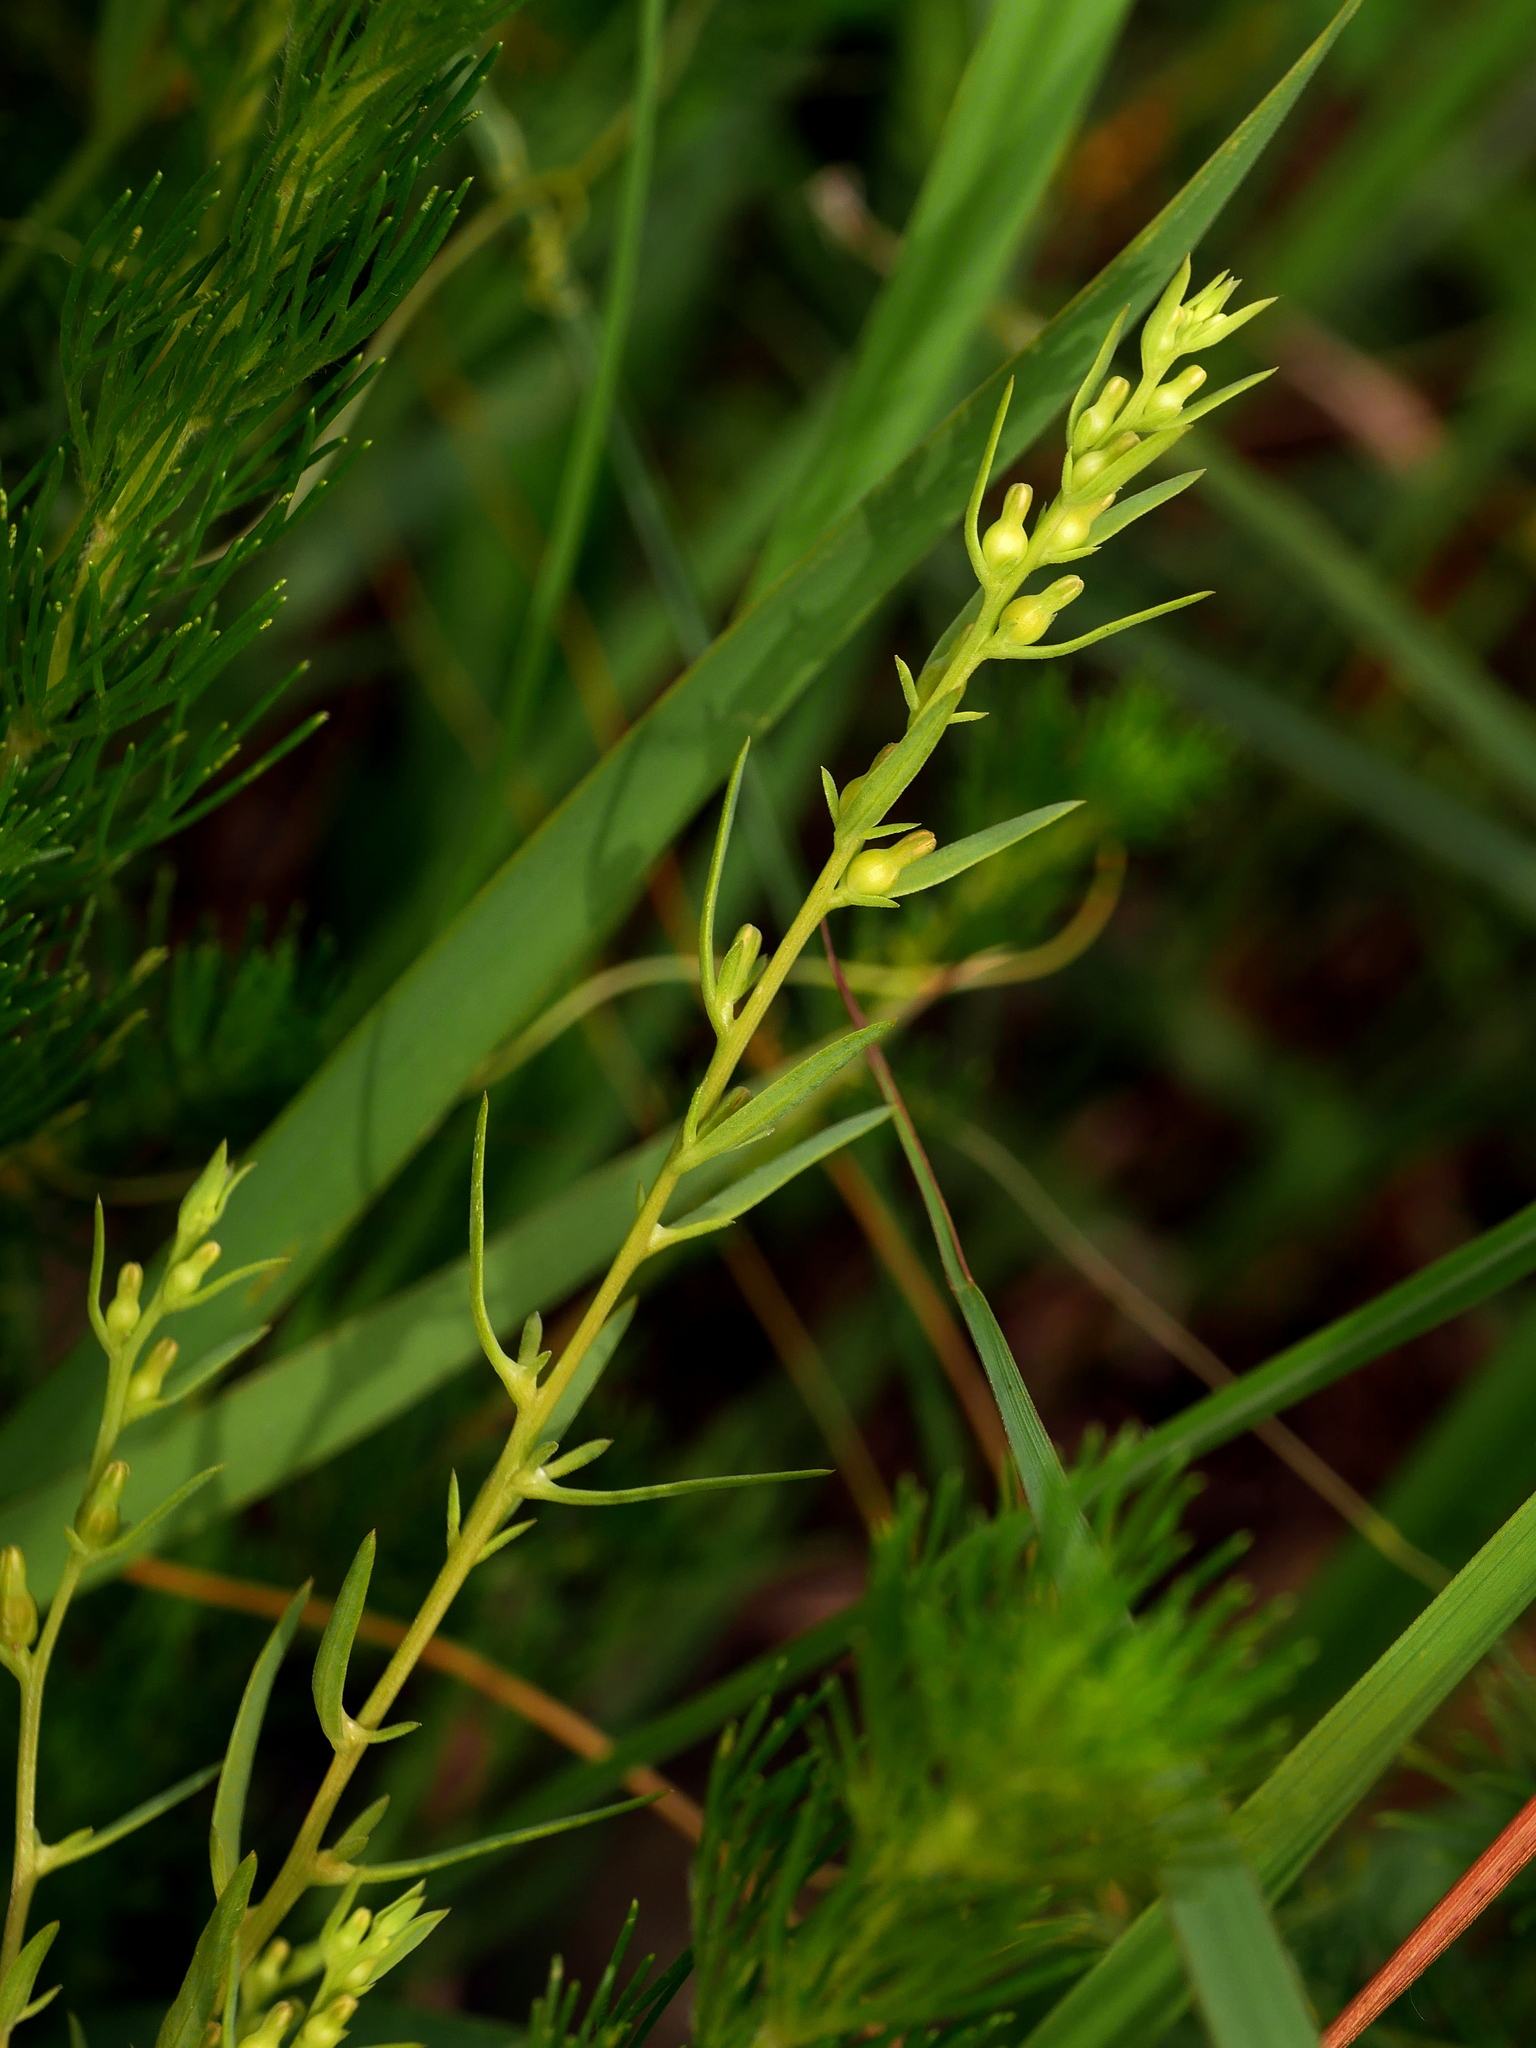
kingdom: Plantae
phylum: Tracheophyta
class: Magnoliopsida
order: Santalales
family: Thesiaceae
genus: Thesium
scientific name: Thesium chinense
